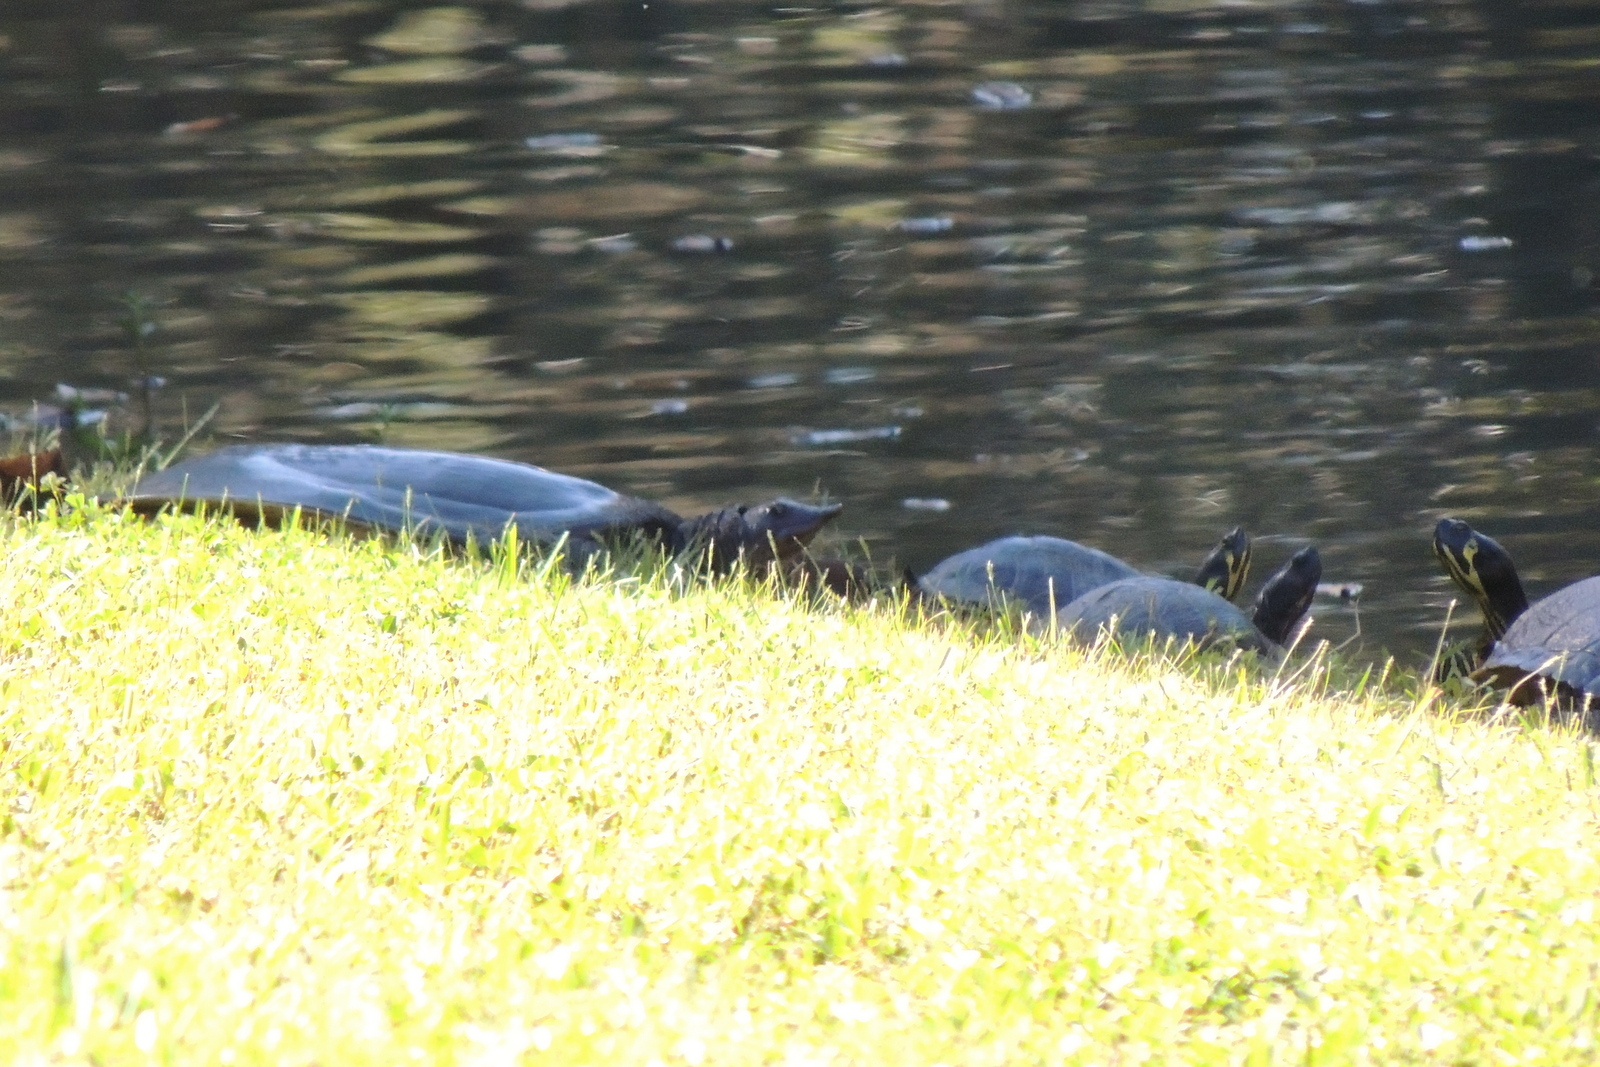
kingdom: Animalia
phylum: Chordata
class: Testudines
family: Trionychidae
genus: Apalone
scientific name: Apalone ferox
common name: Florida softshell turtle
